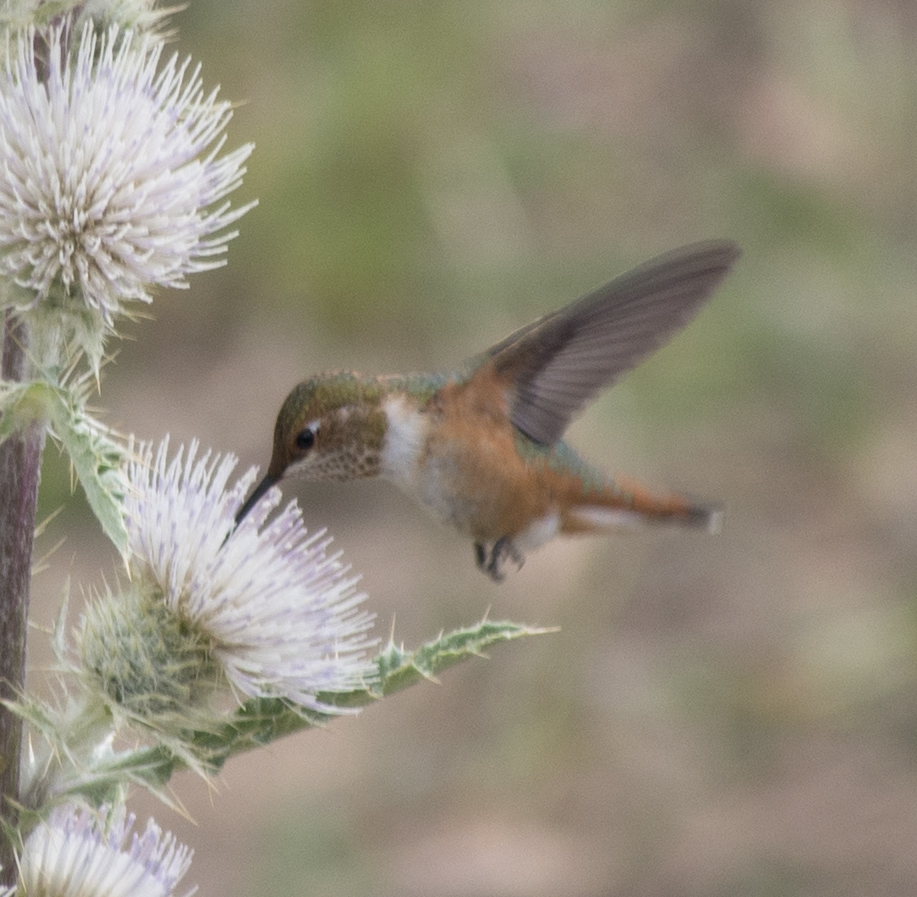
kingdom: Animalia
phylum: Chordata
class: Aves
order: Apodiformes
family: Trochilidae
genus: Selasphorus
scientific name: Selasphorus rufus
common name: Rufous hummingbird
